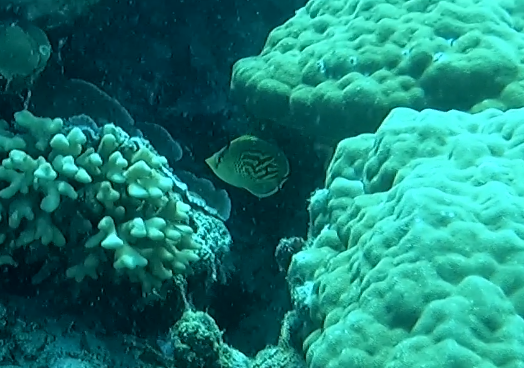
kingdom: Animalia
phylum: Chordata
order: Perciformes
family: Chaetodontidae
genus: Chaetodon
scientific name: Chaetodon
